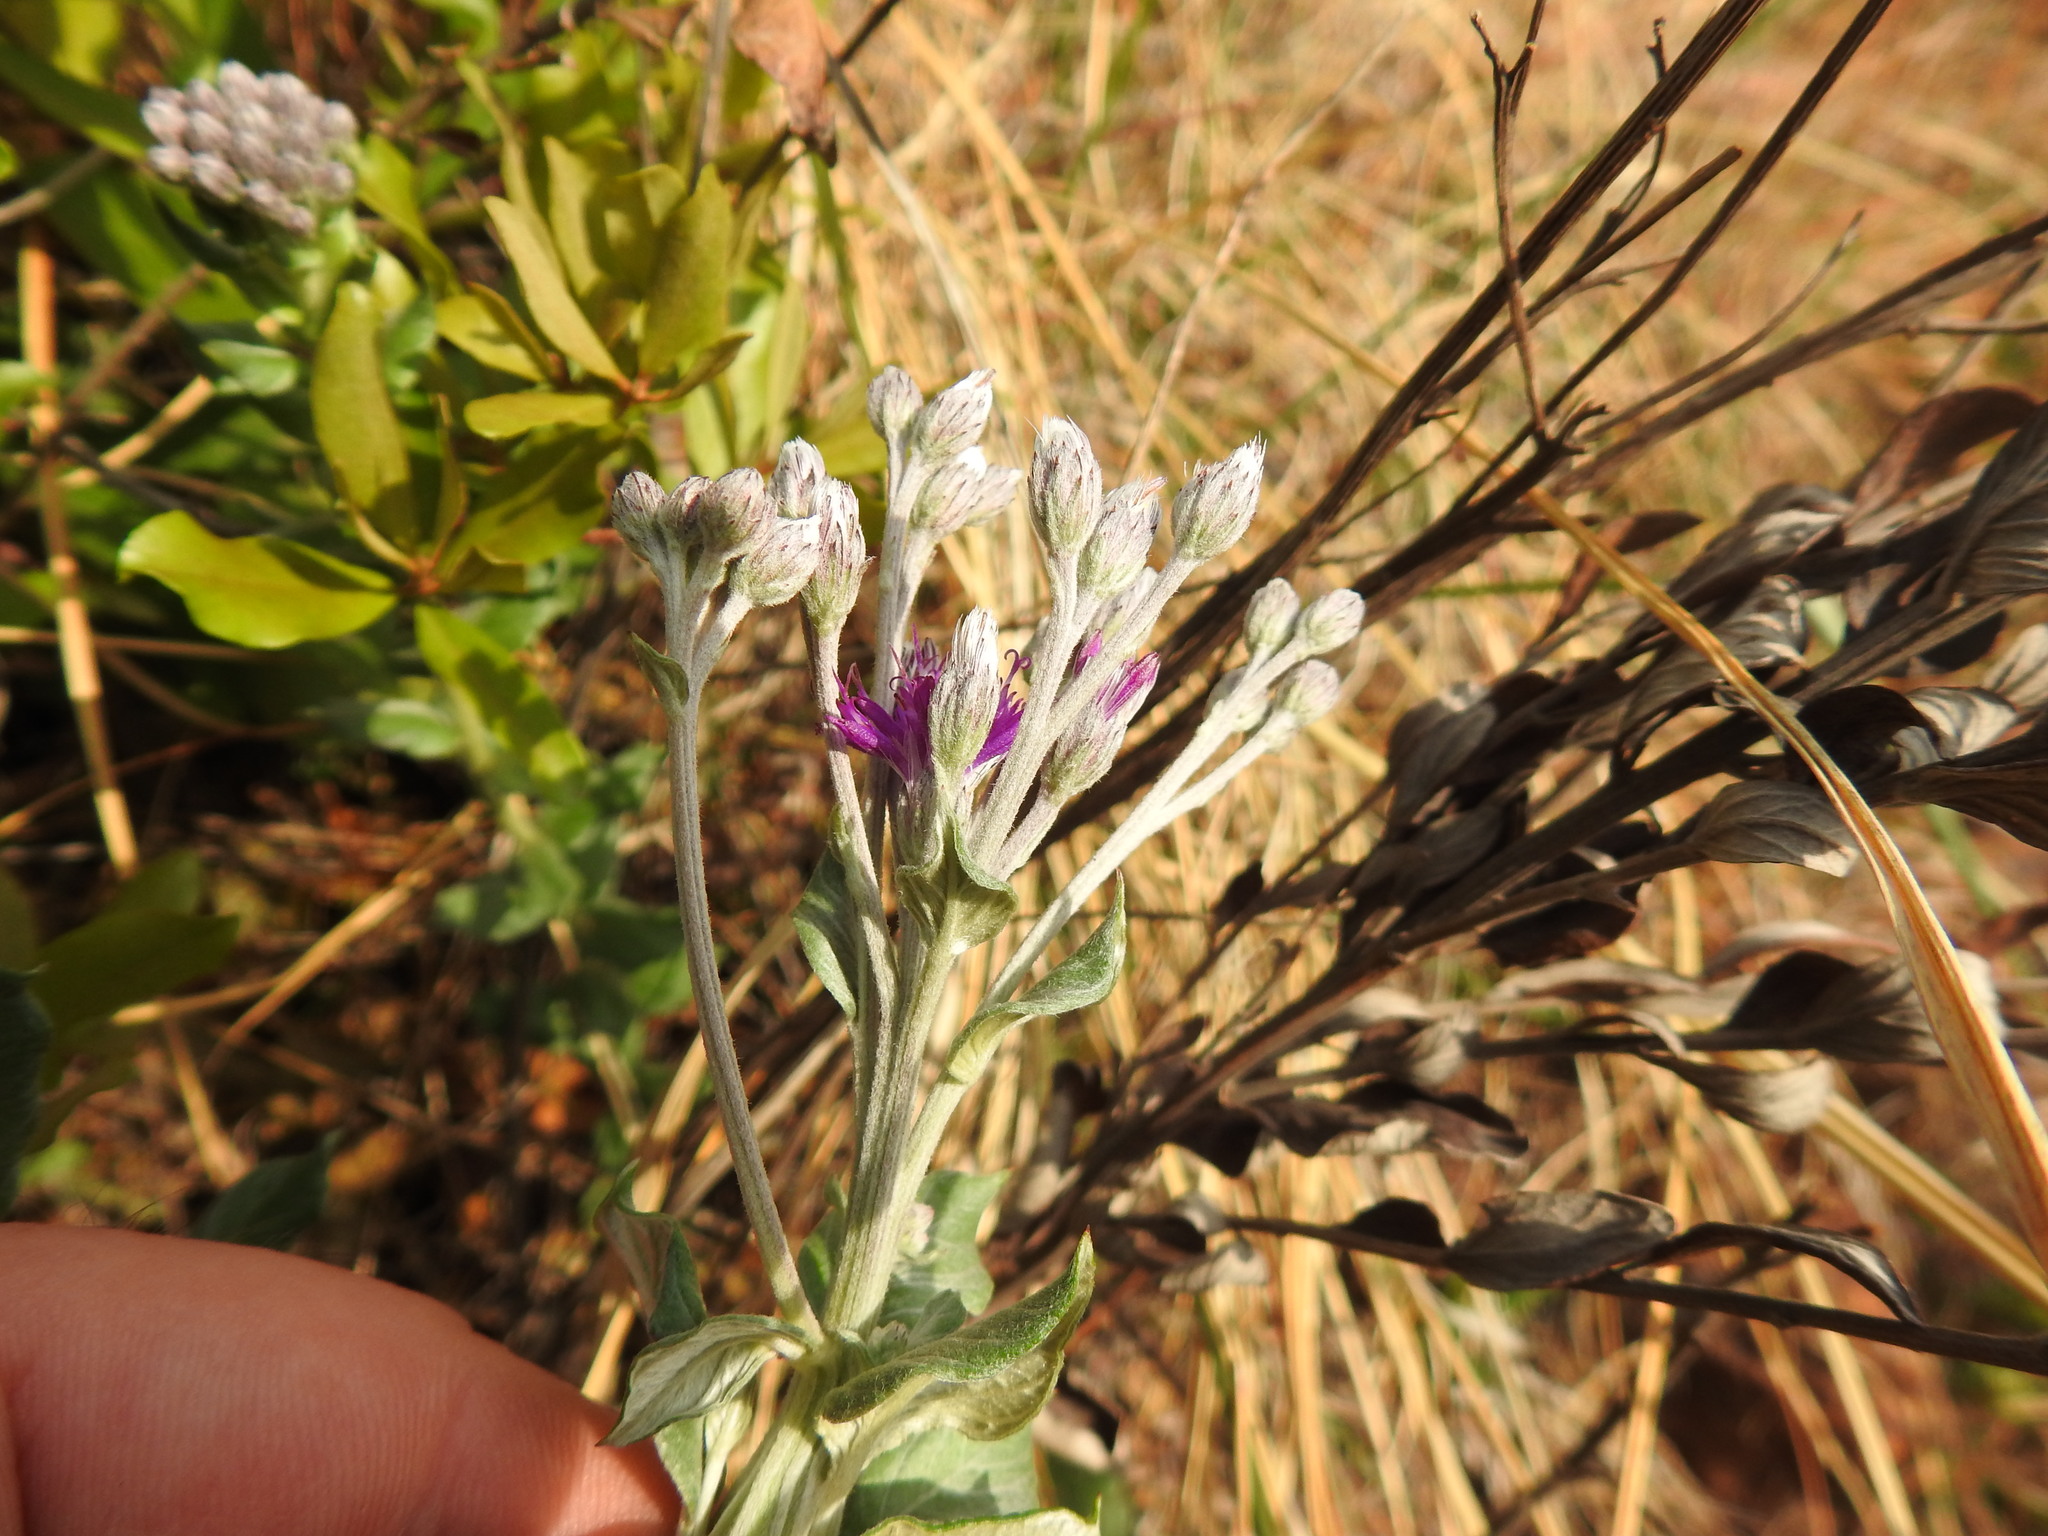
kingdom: Plantae
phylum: Tracheophyta
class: Magnoliopsida
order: Asterales
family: Asteraceae
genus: Hilliardiella
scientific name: Hilliardiella oligocephala
